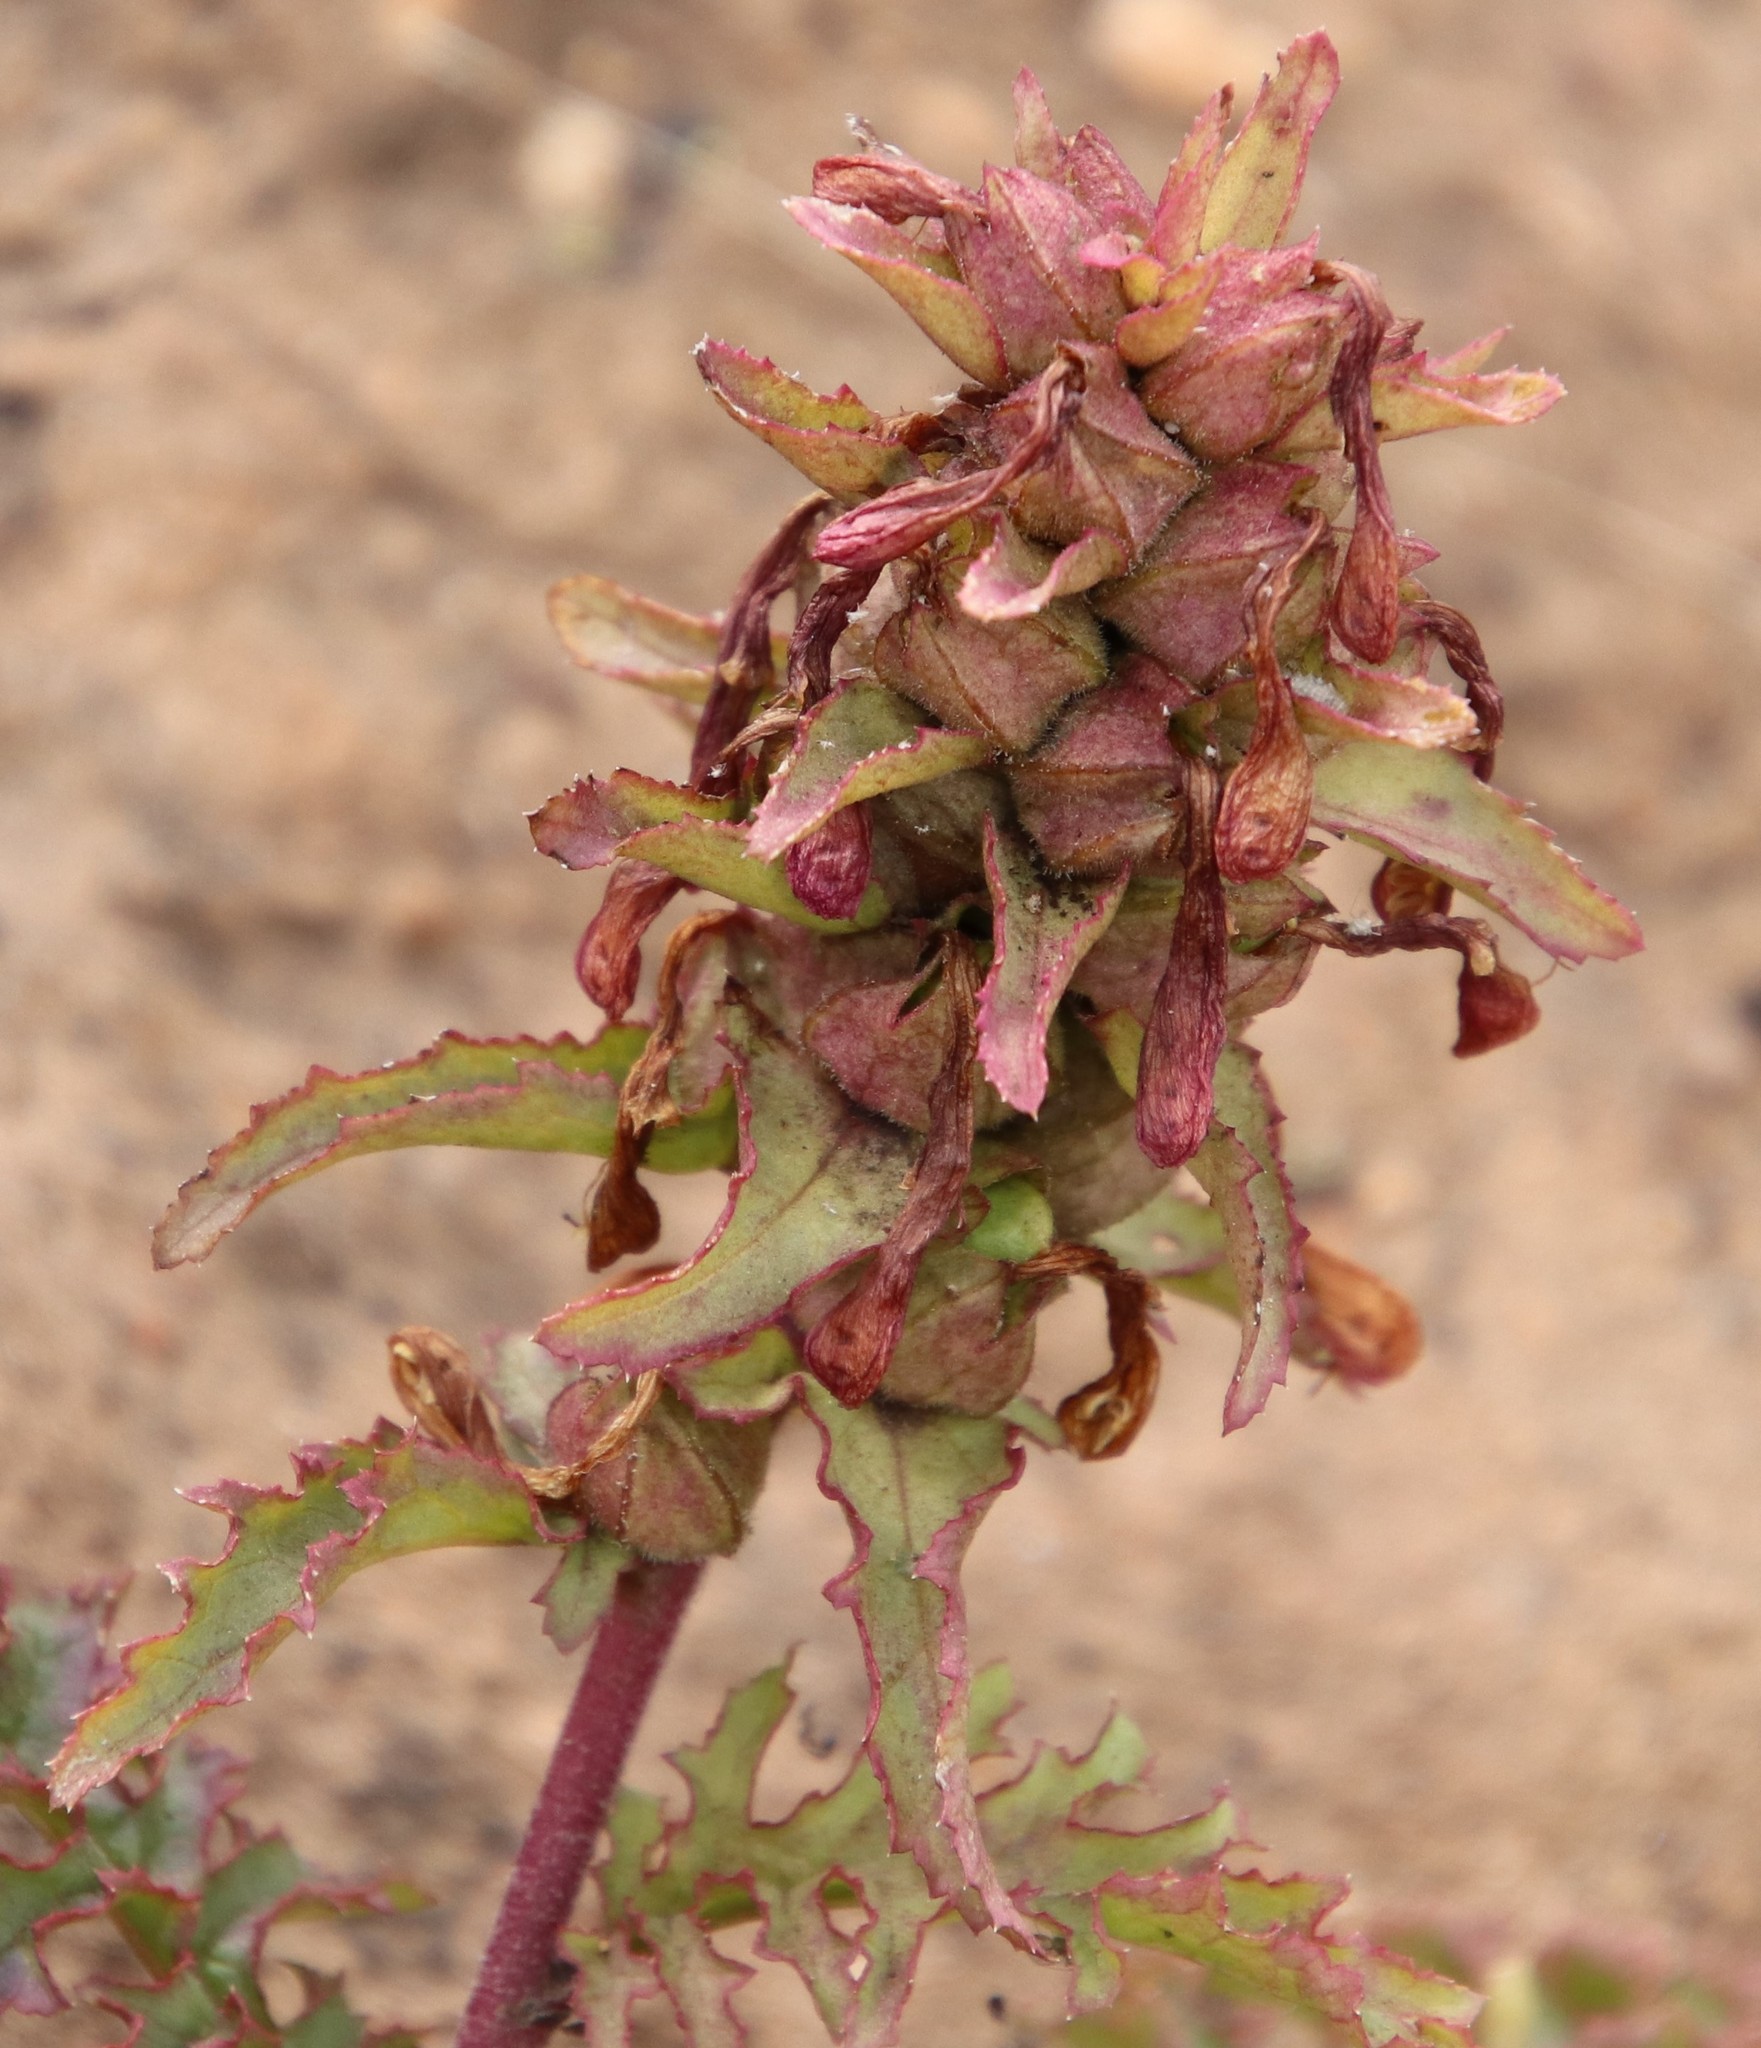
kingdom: Plantae
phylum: Tracheophyta
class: Magnoliopsida
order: Lamiales
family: Orobanchaceae
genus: Pedicularis
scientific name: Pedicularis densiflora
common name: Indian warrior
